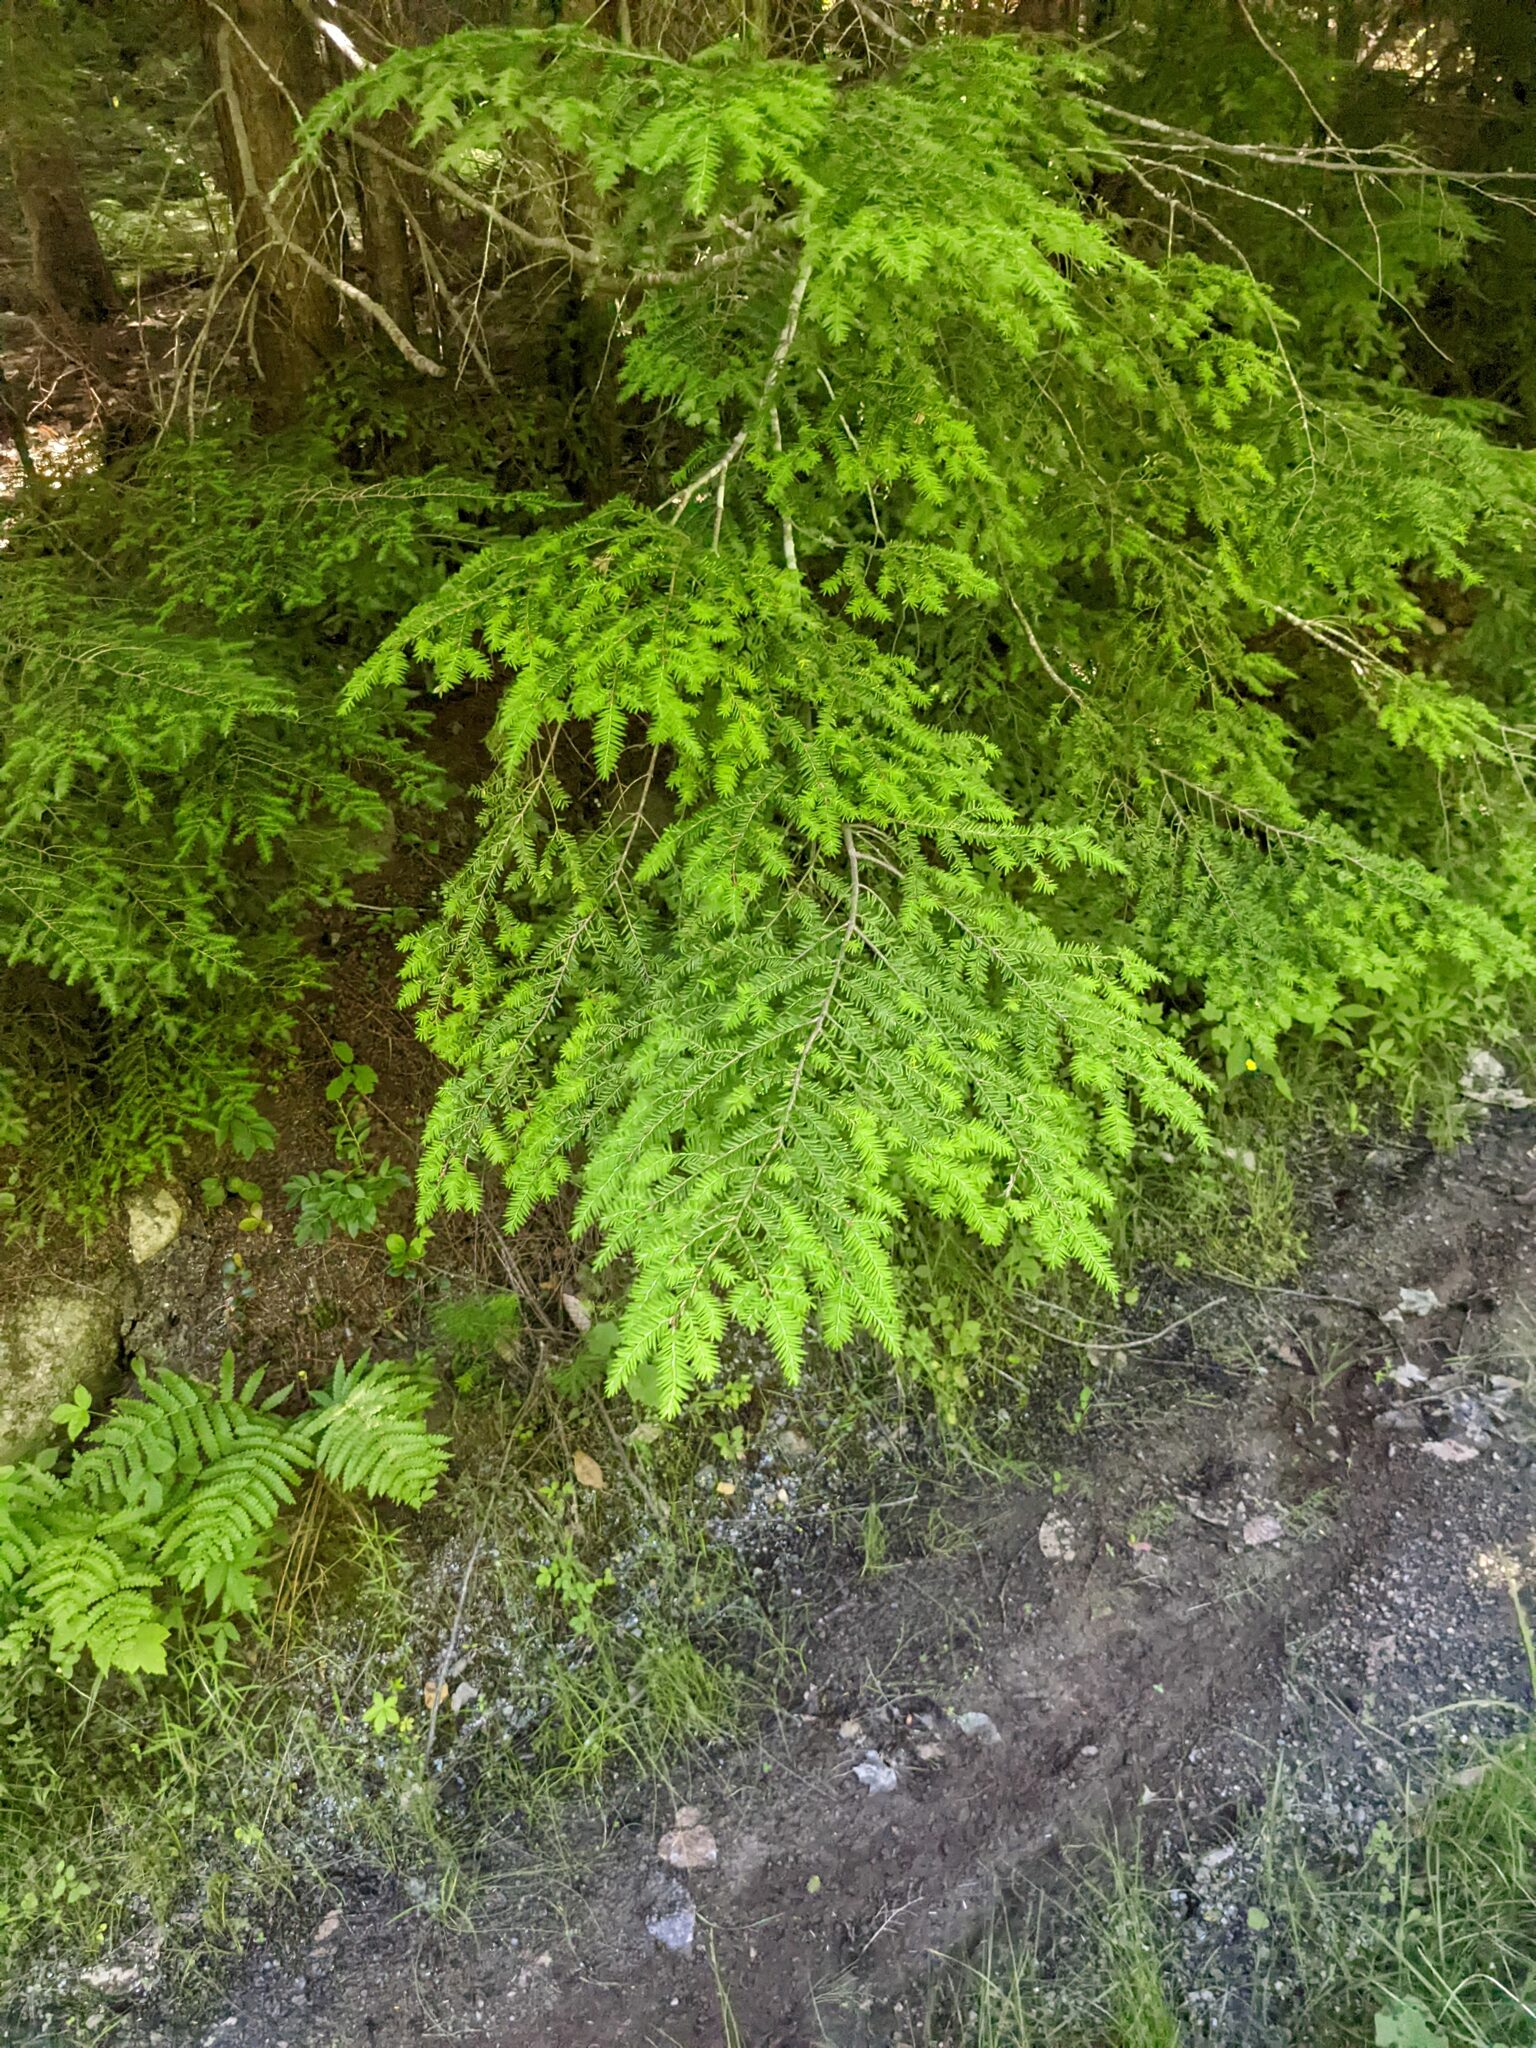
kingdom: Plantae
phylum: Tracheophyta
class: Pinopsida
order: Pinales
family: Pinaceae
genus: Tsuga
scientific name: Tsuga canadensis
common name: Eastern hemlock
